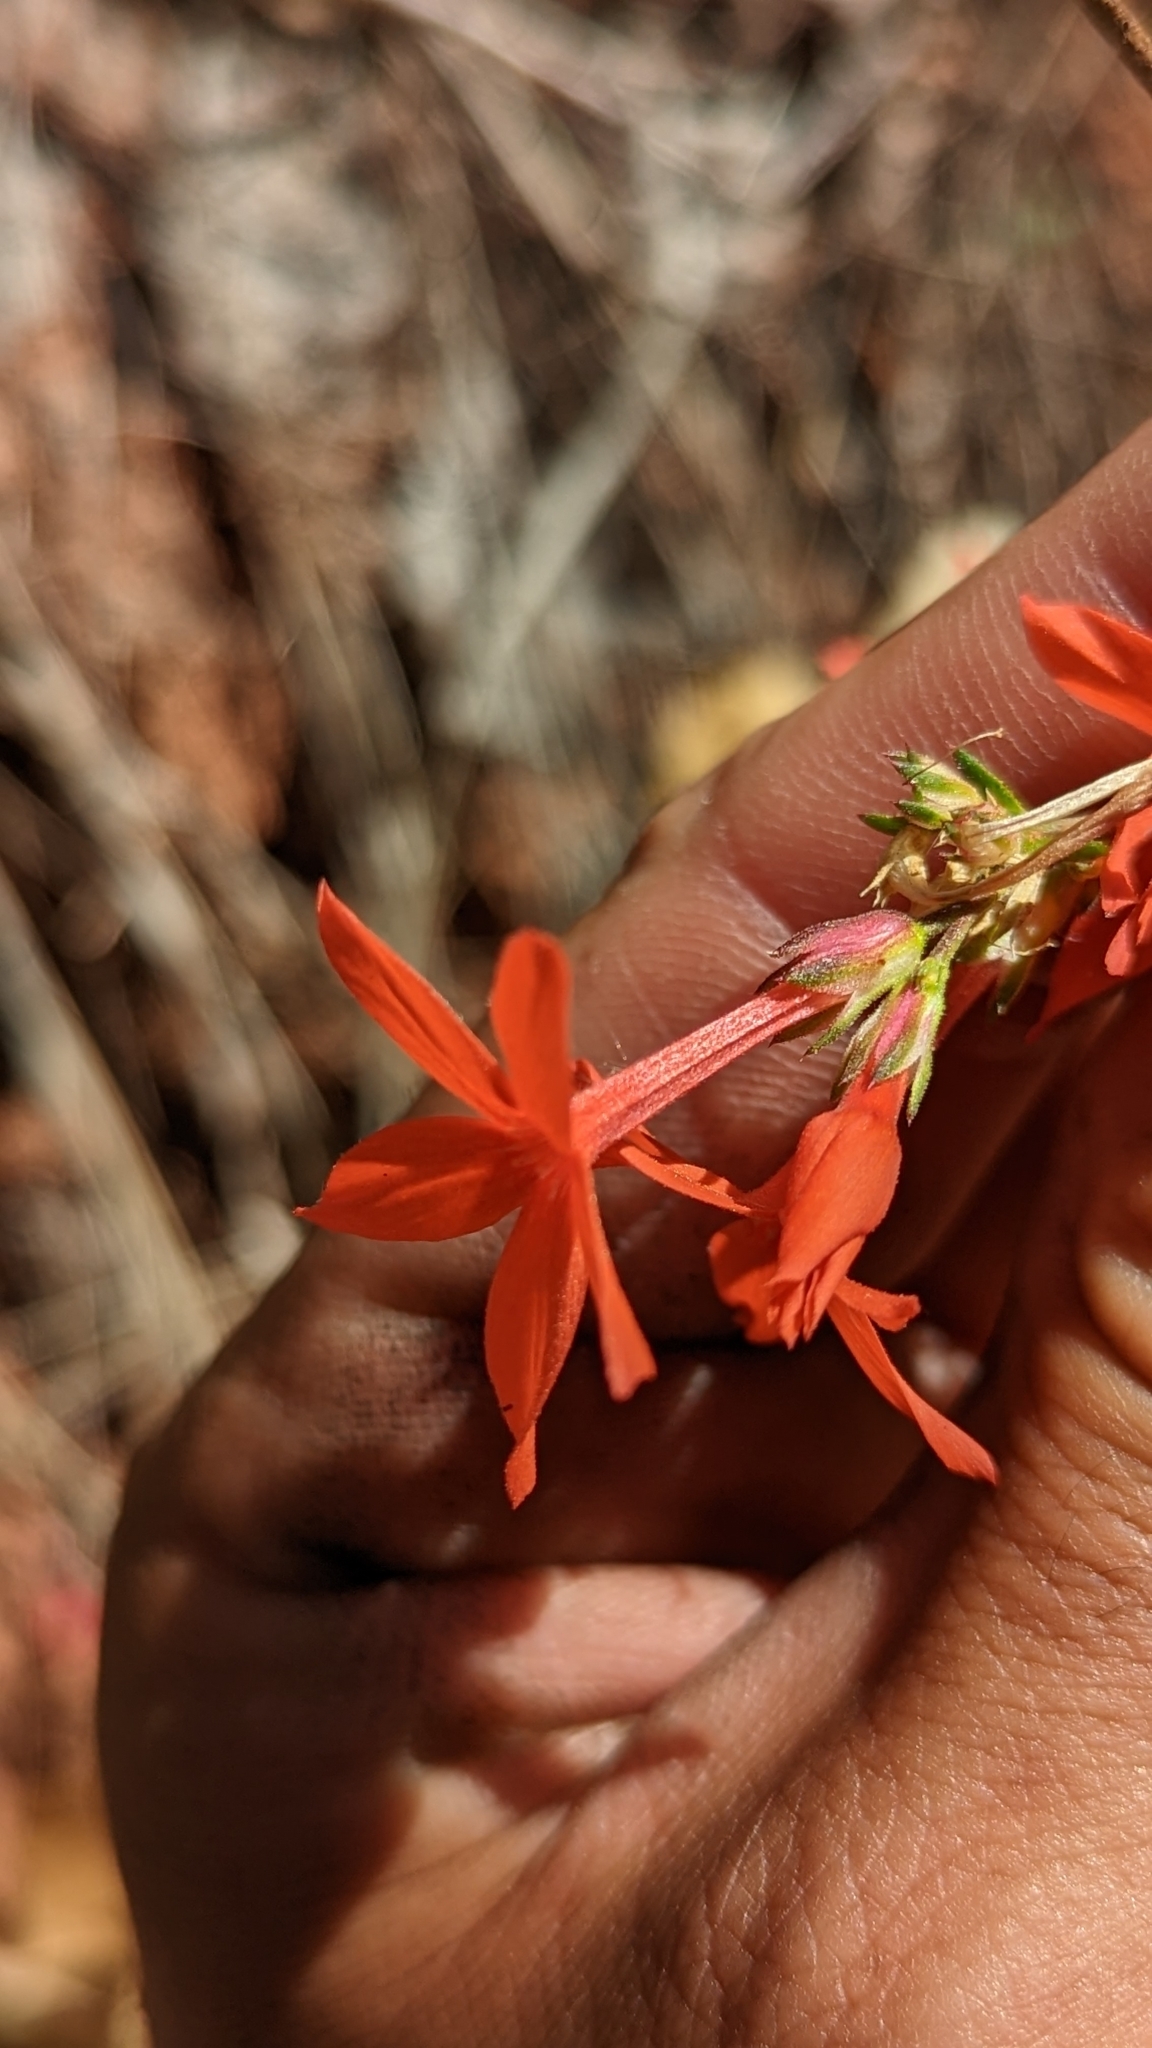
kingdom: Plantae
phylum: Tracheophyta
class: Magnoliopsida
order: Ericales
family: Polemoniaceae
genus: Ipomopsis
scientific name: Ipomopsis arizonica
